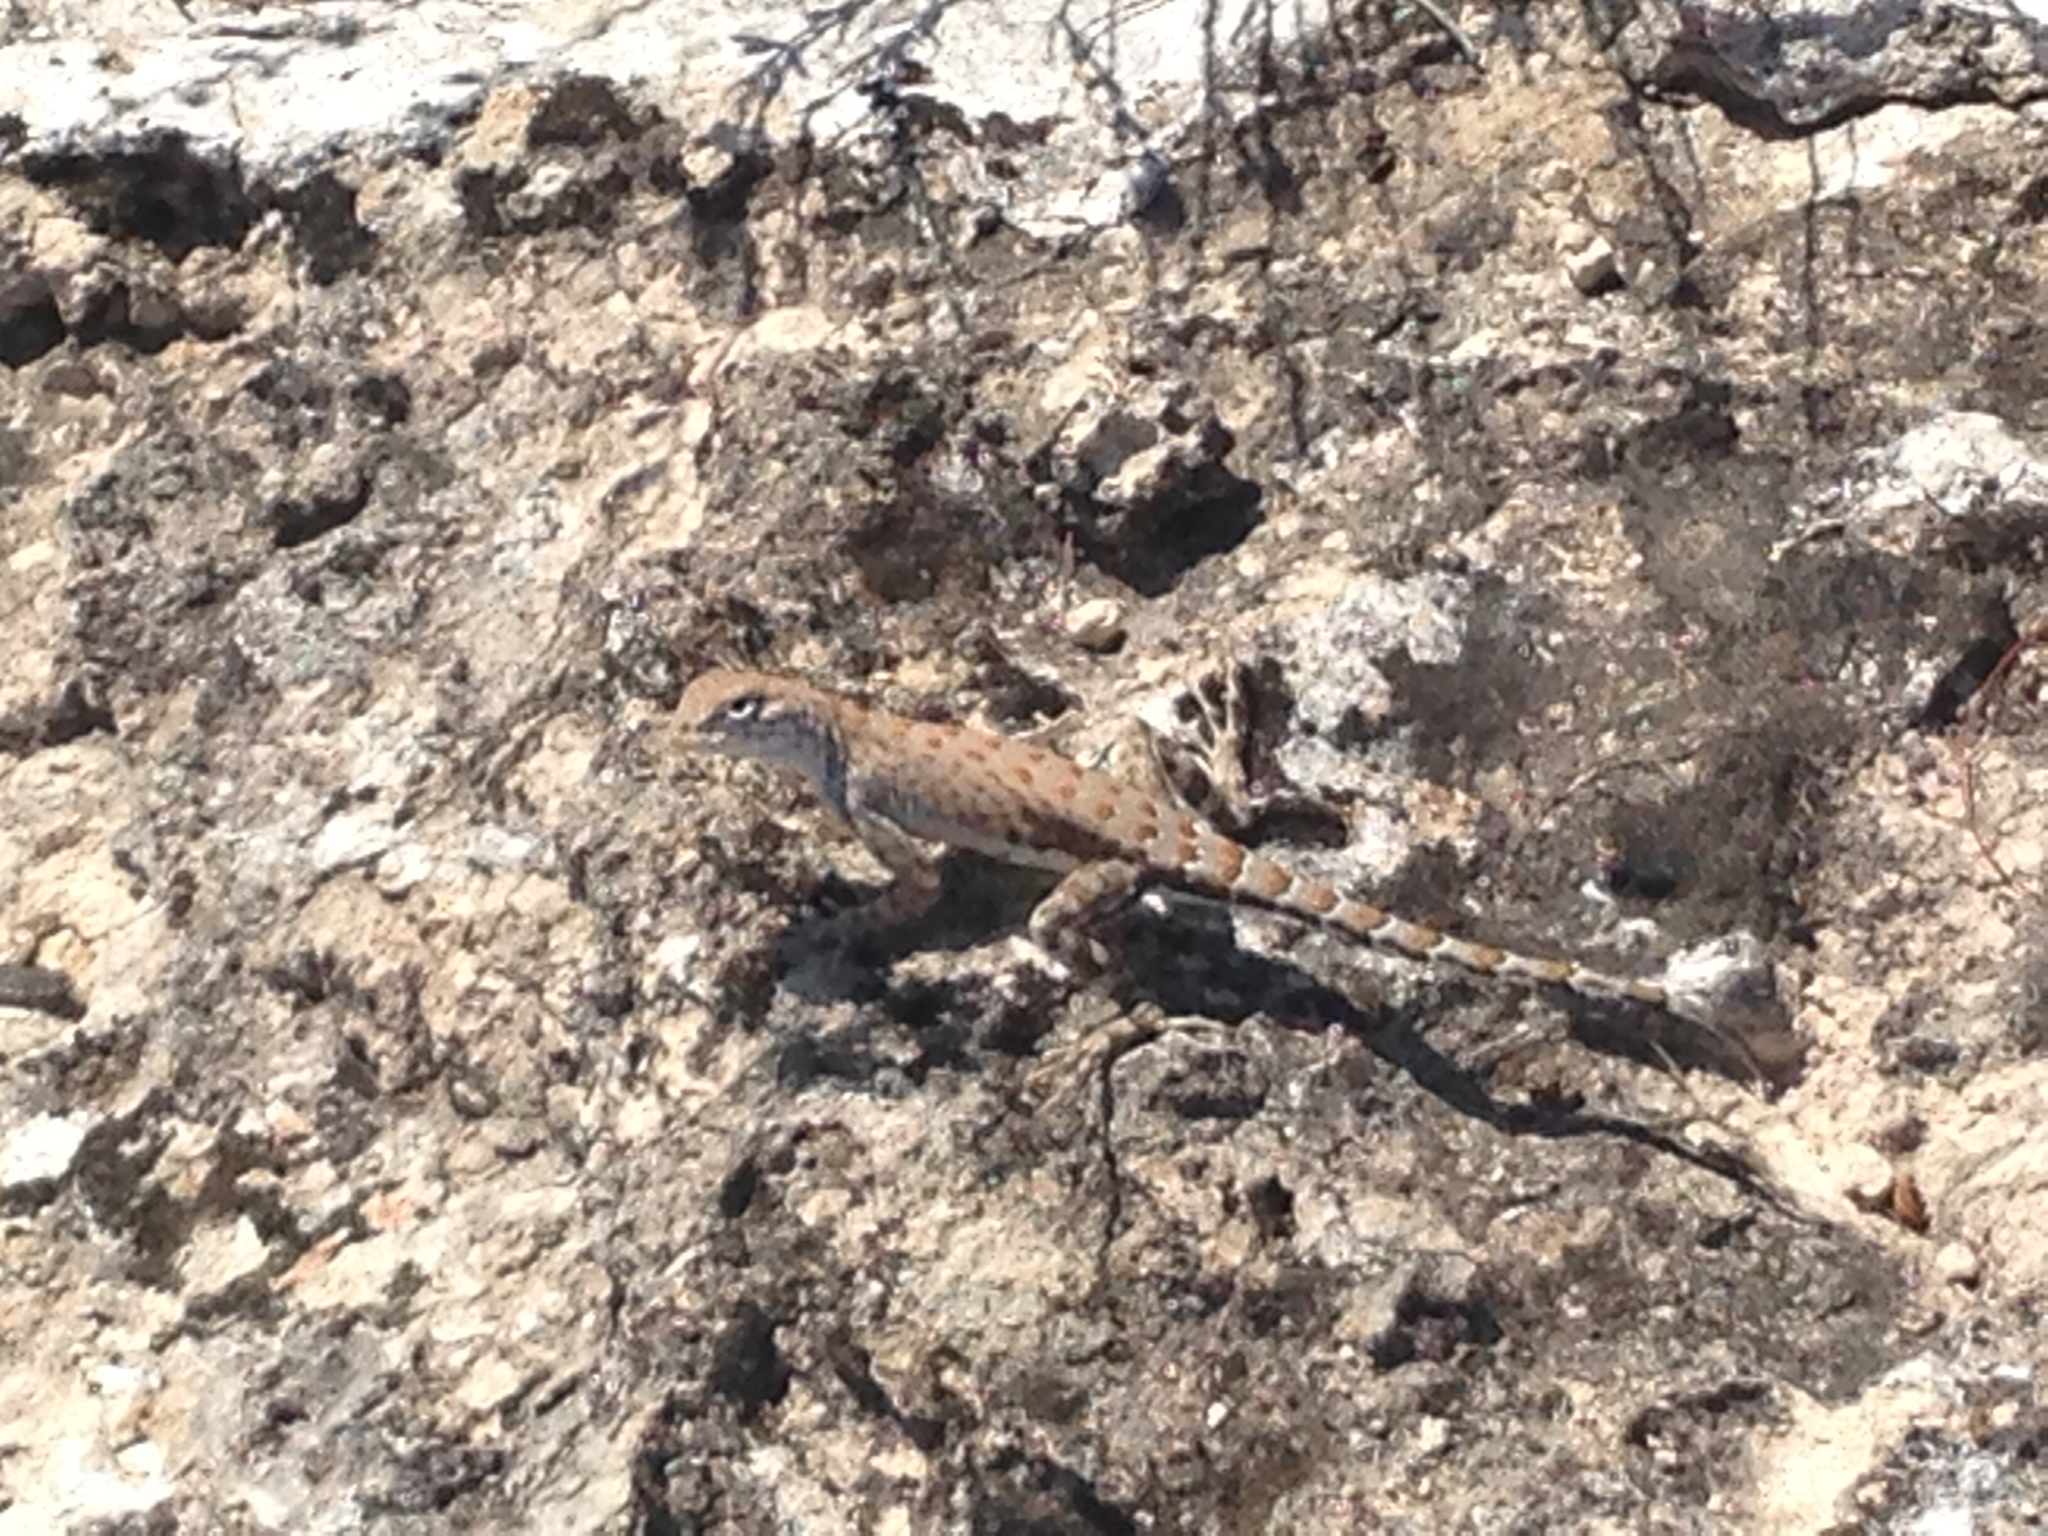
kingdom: Animalia
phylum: Chordata
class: Squamata
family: Phrynosomatidae
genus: Cophosaurus
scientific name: Cophosaurus texanus
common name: Greater earless lizard
